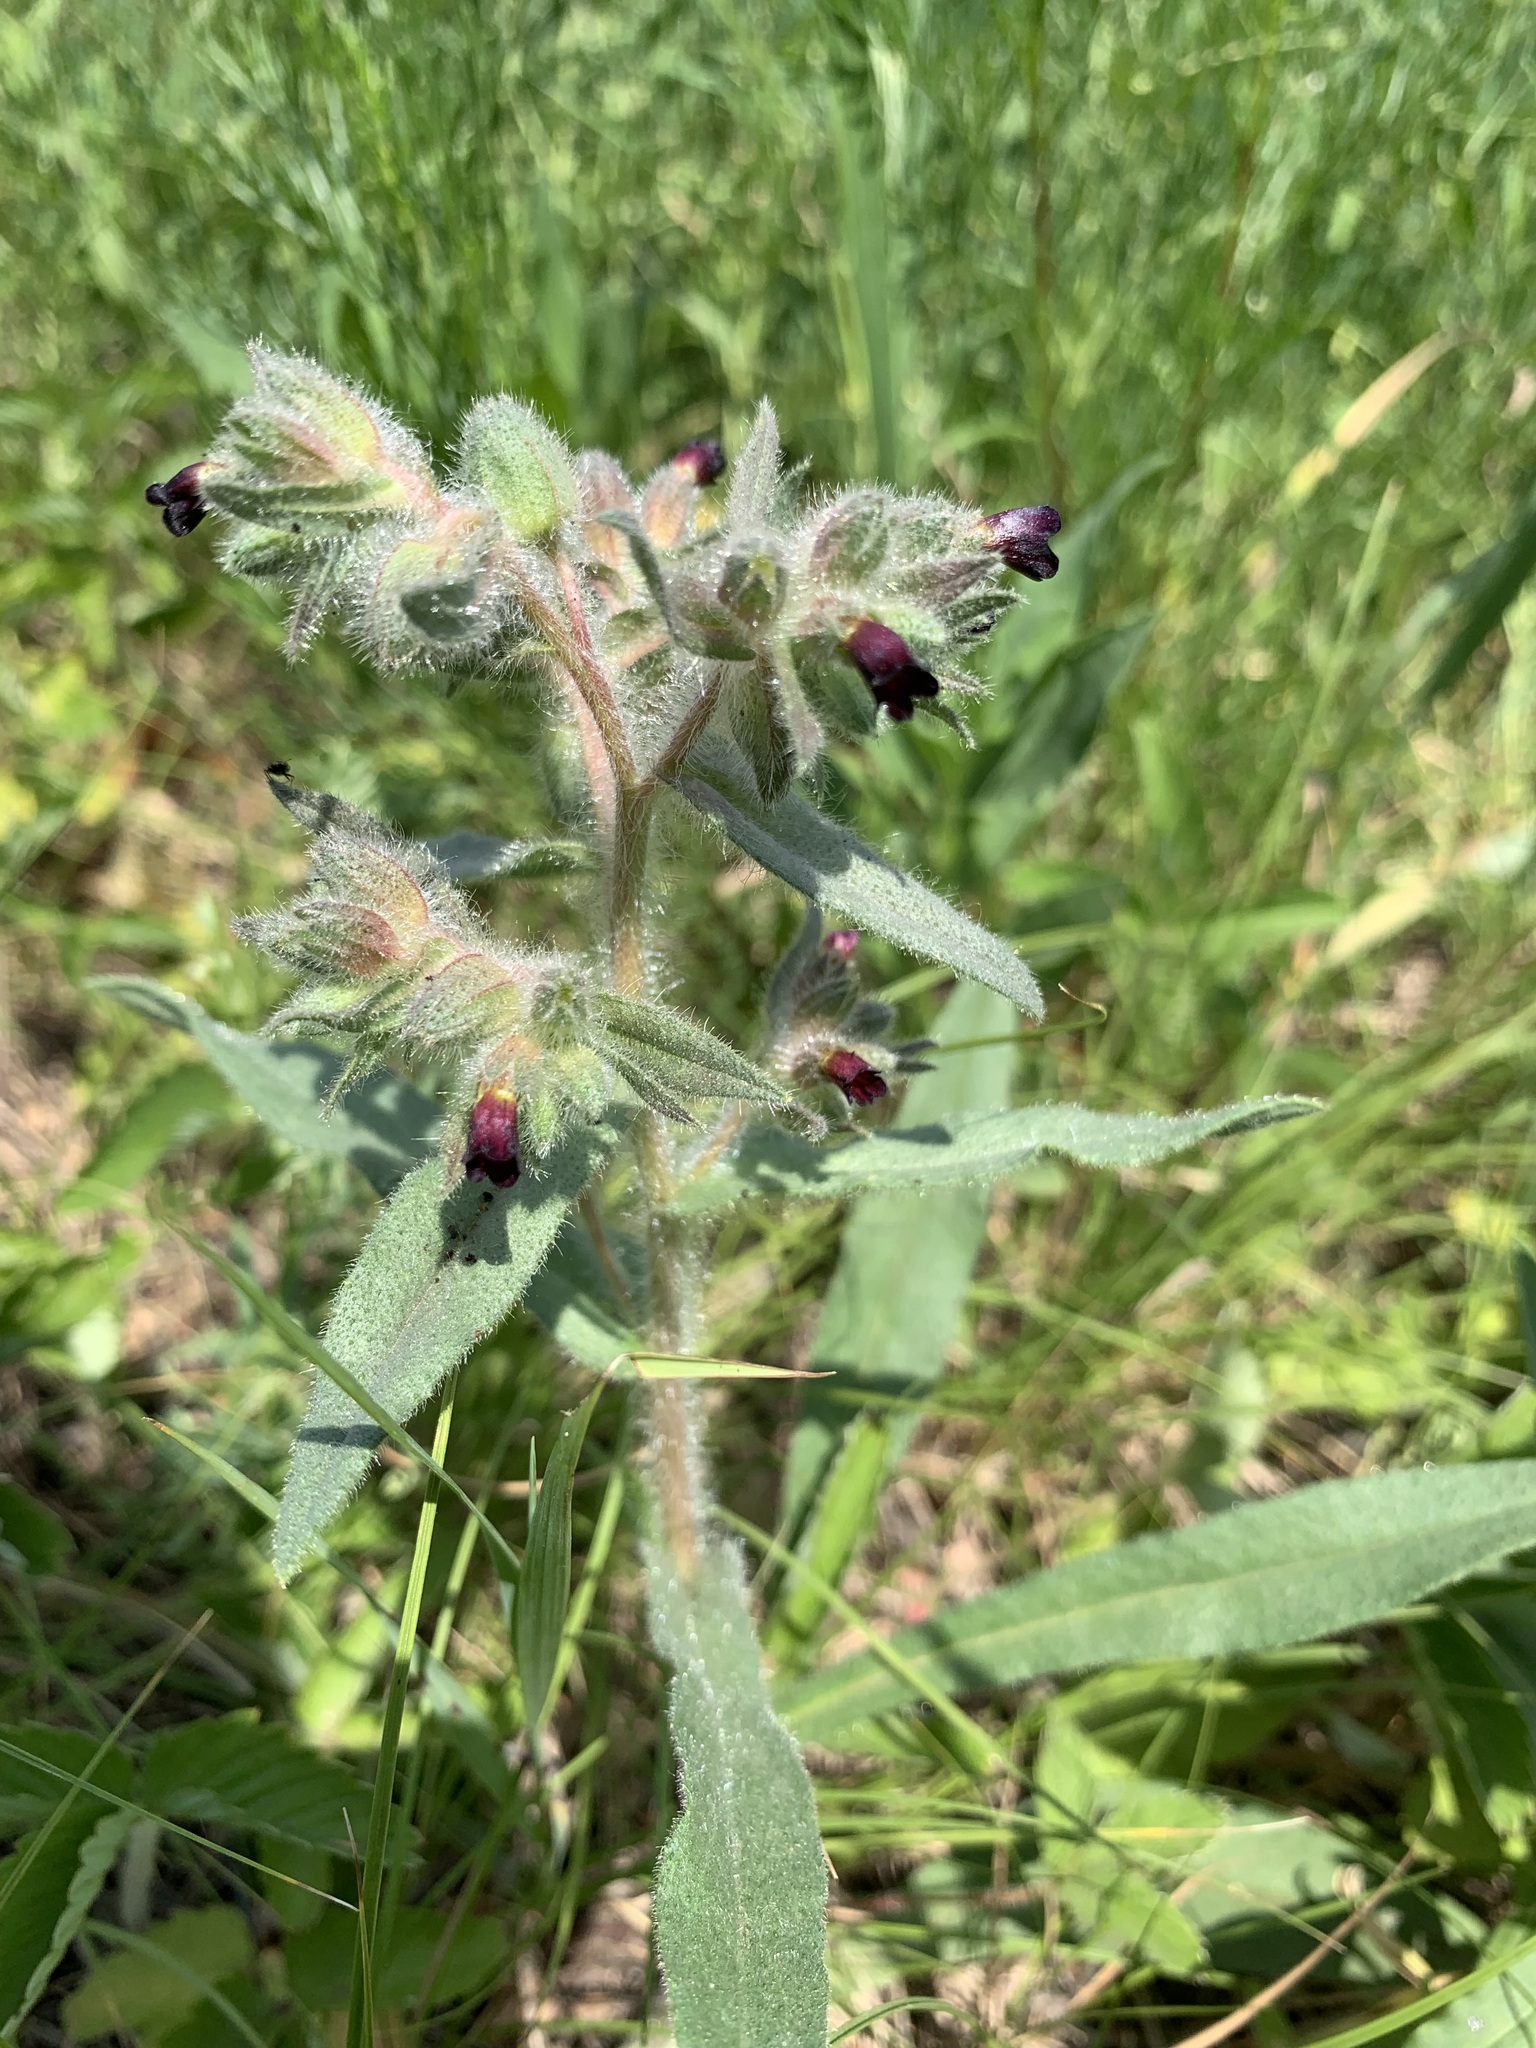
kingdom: Plantae
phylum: Tracheophyta
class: Magnoliopsida
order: Boraginales
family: Boraginaceae
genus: Nonea
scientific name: Nonea pulla
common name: Brown nonea
